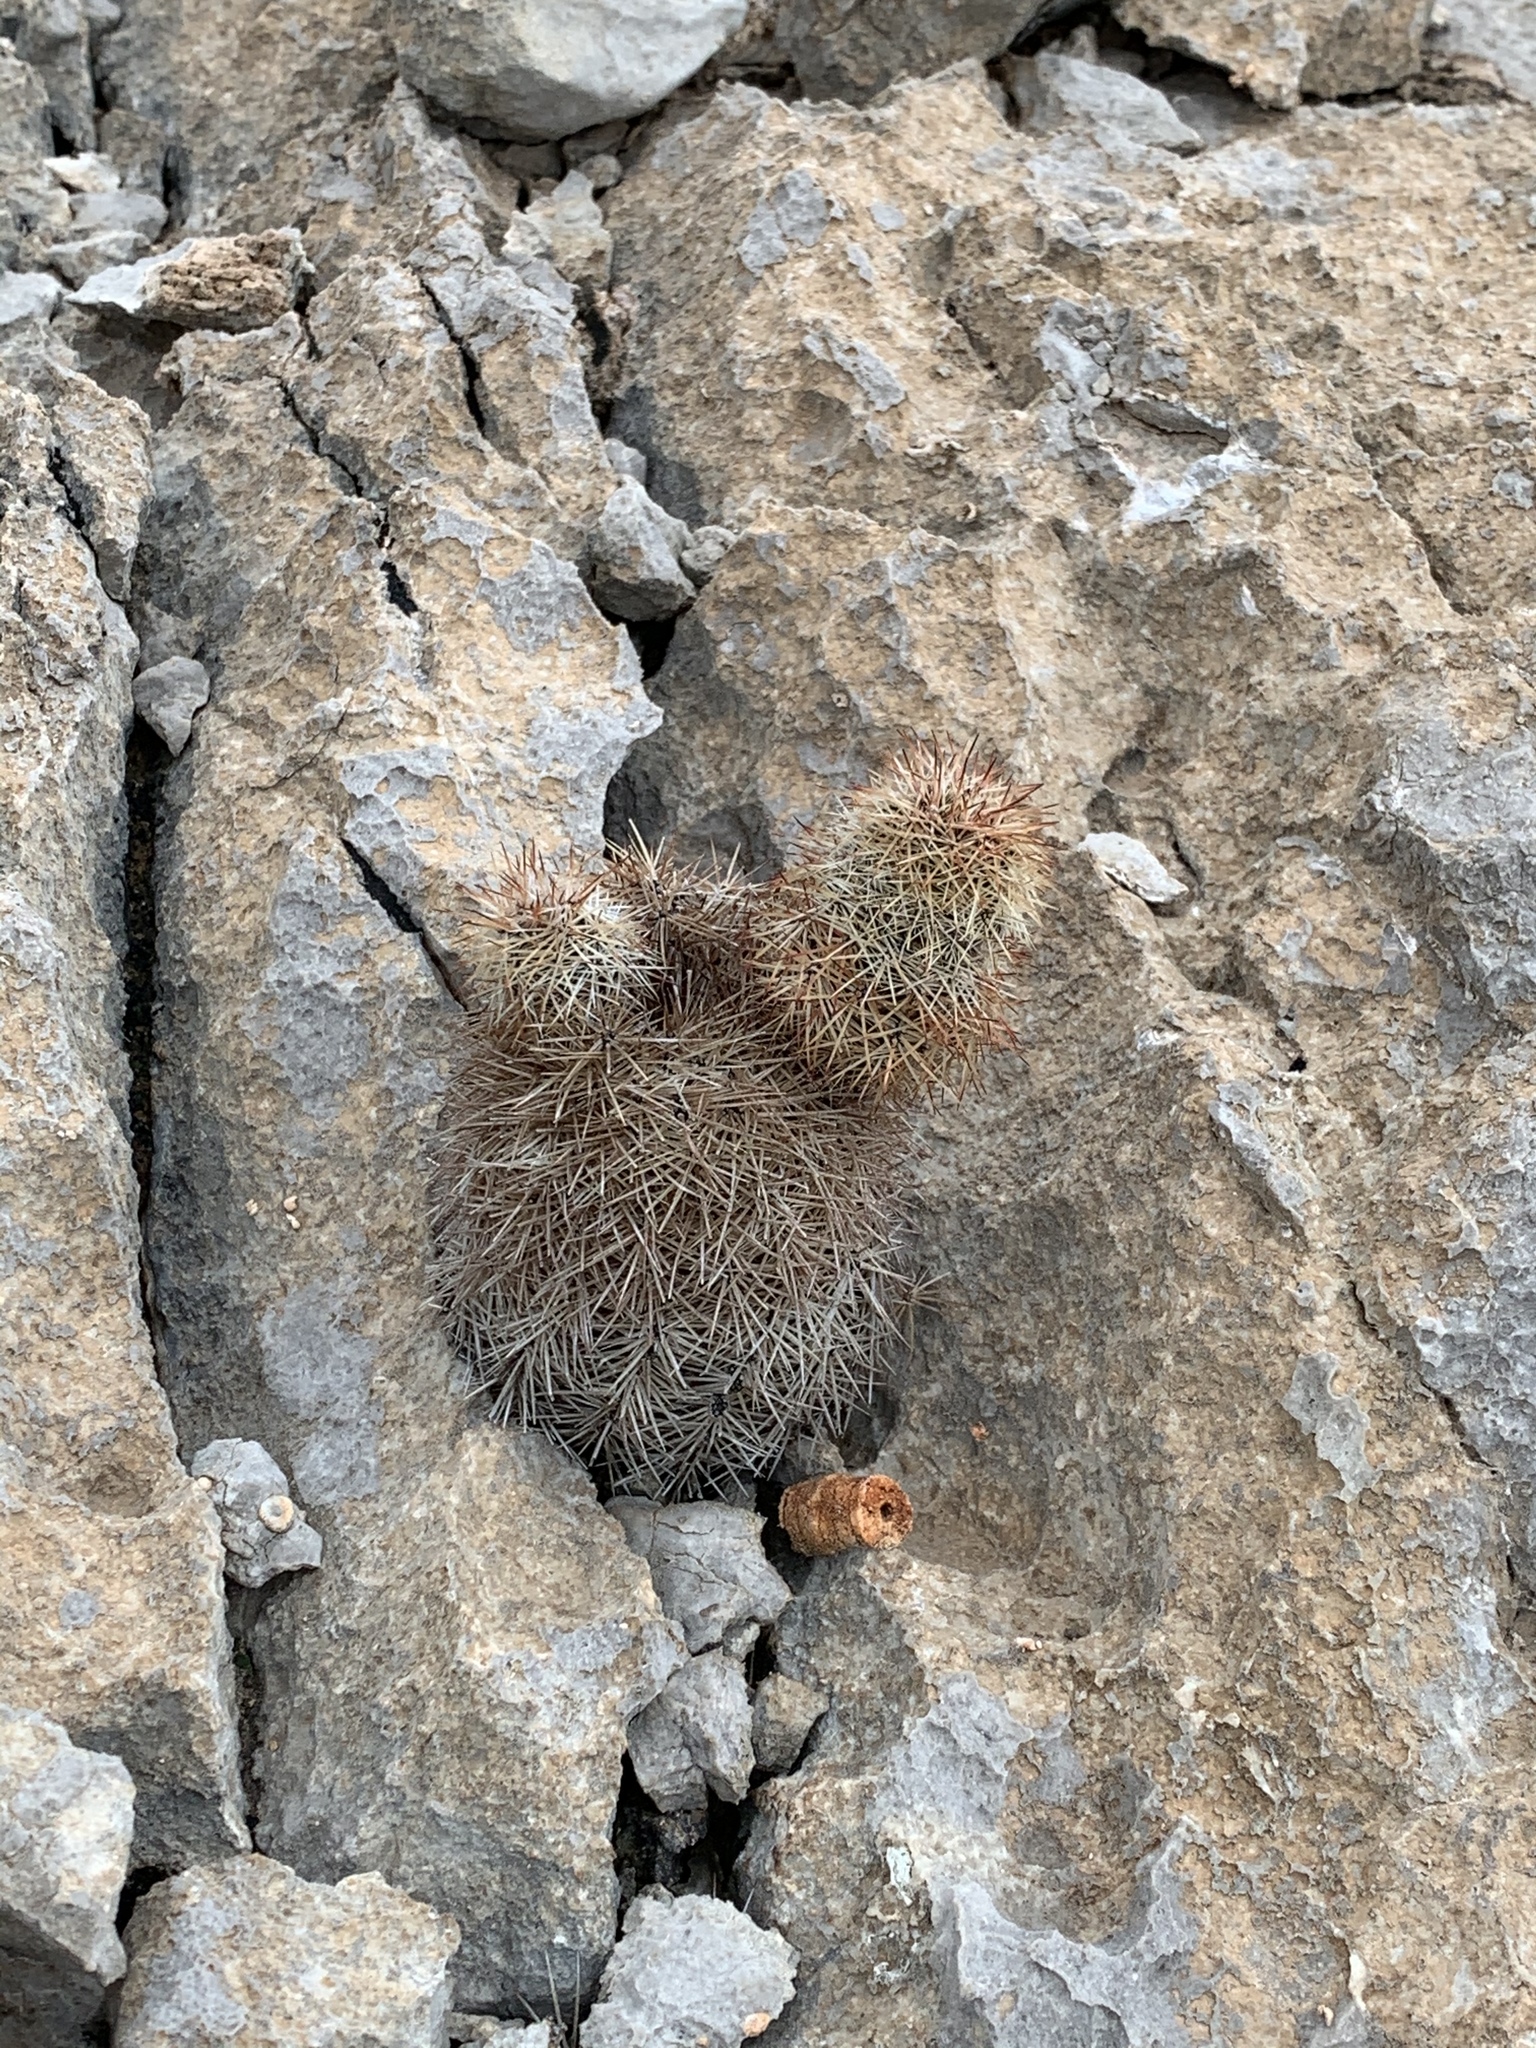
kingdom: Plantae
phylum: Tracheophyta
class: Magnoliopsida
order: Caryophyllales
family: Cactaceae
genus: Echinocereus
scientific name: Echinocereus dasyacanthus
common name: Spiny hedgehog cactus
